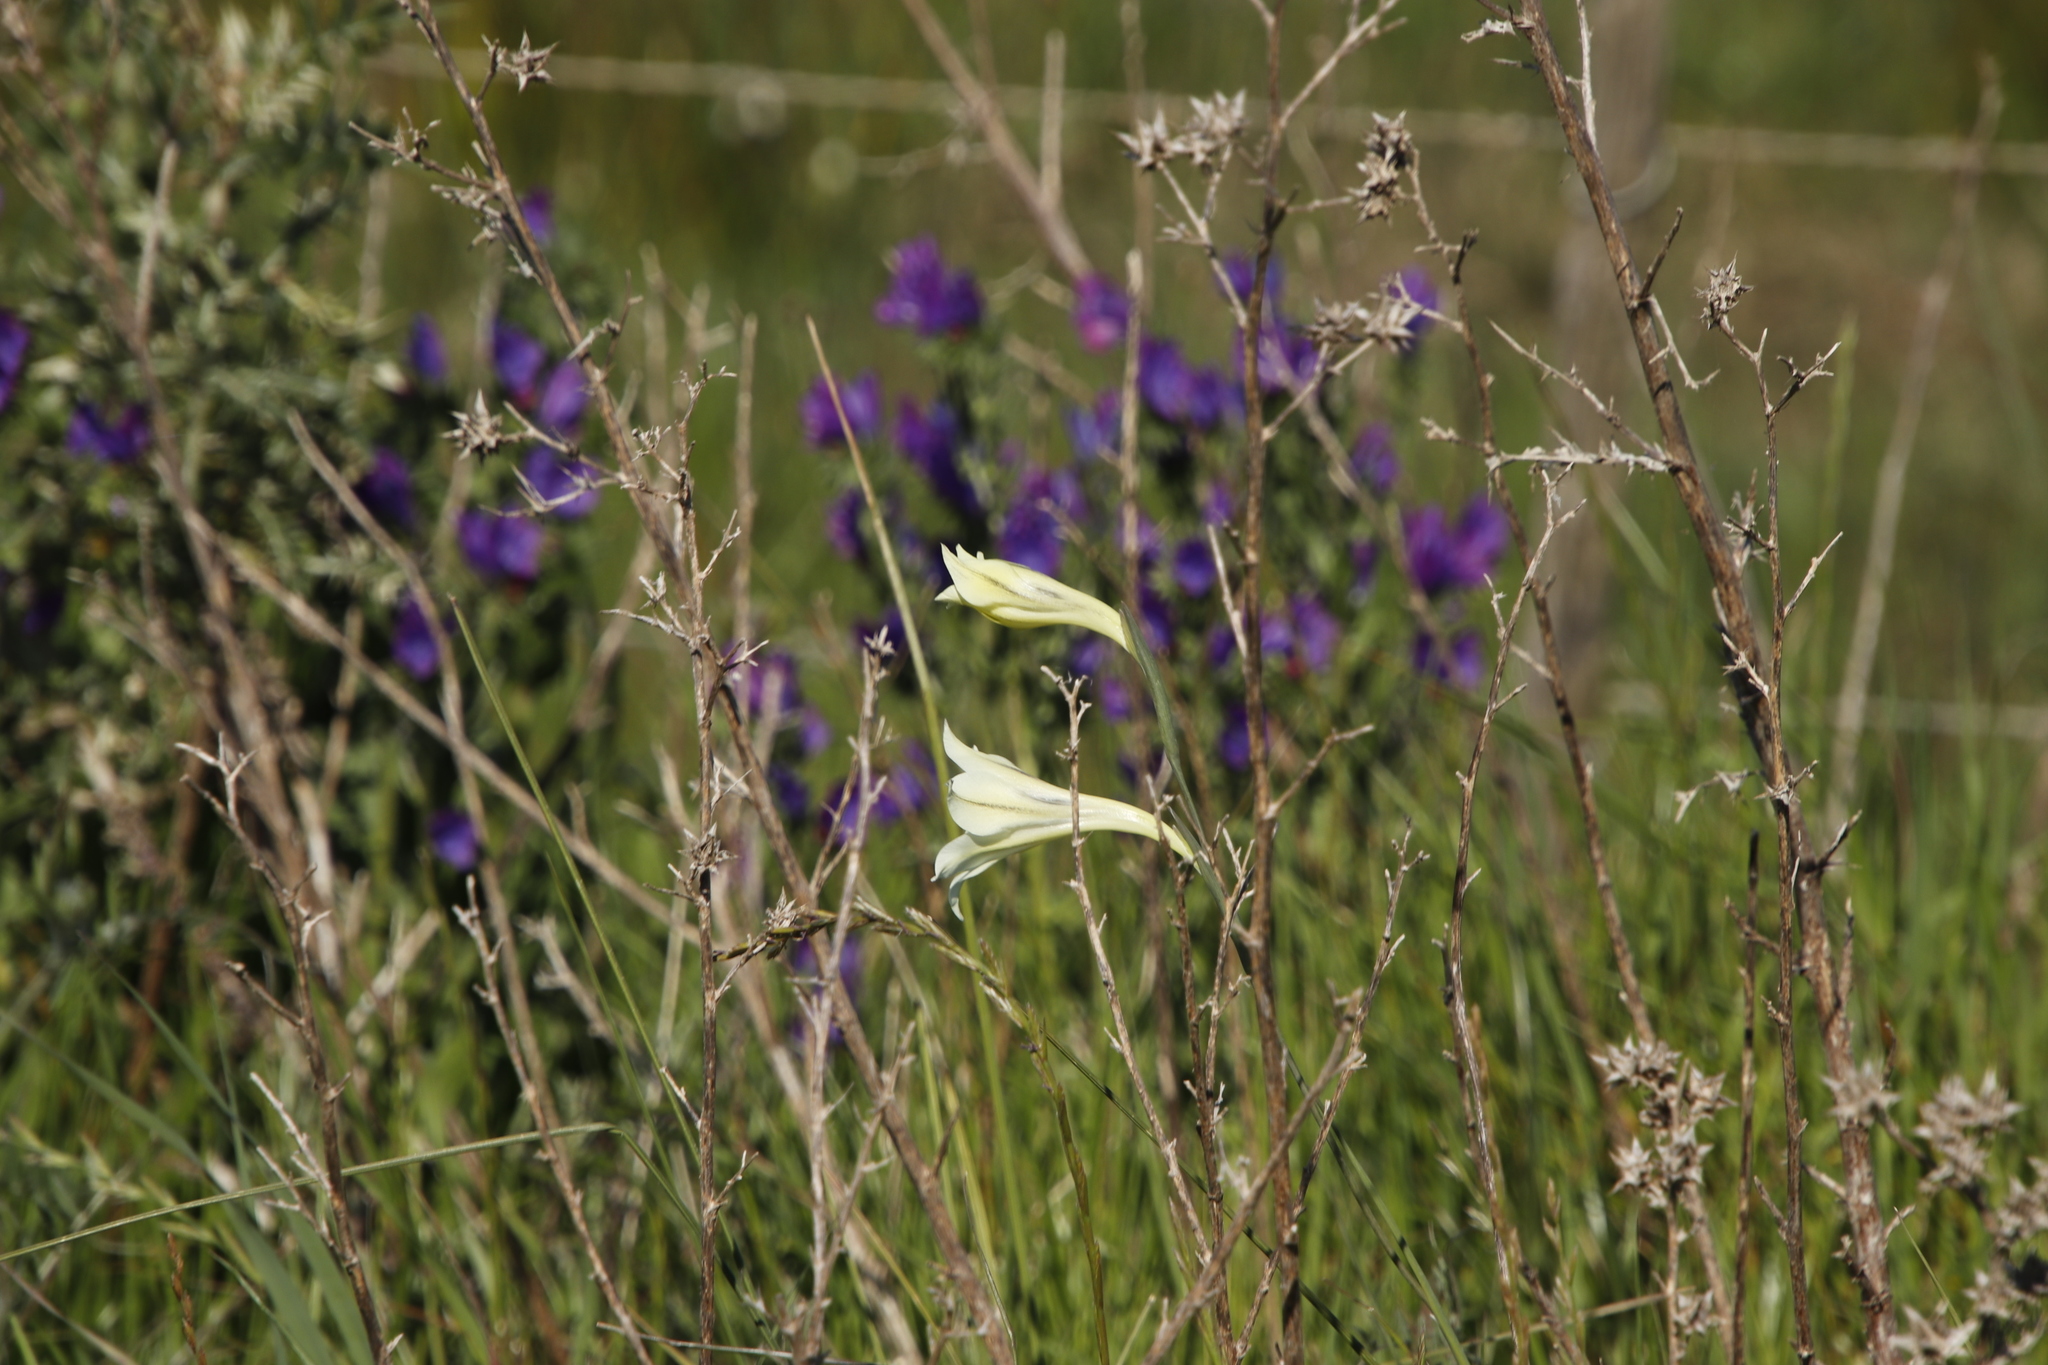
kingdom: Plantae
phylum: Tracheophyta
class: Liliopsida
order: Asparagales
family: Iridaceae
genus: Gladiolus
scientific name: Gladiolus tristis
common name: Ever-flowering gladiolus
